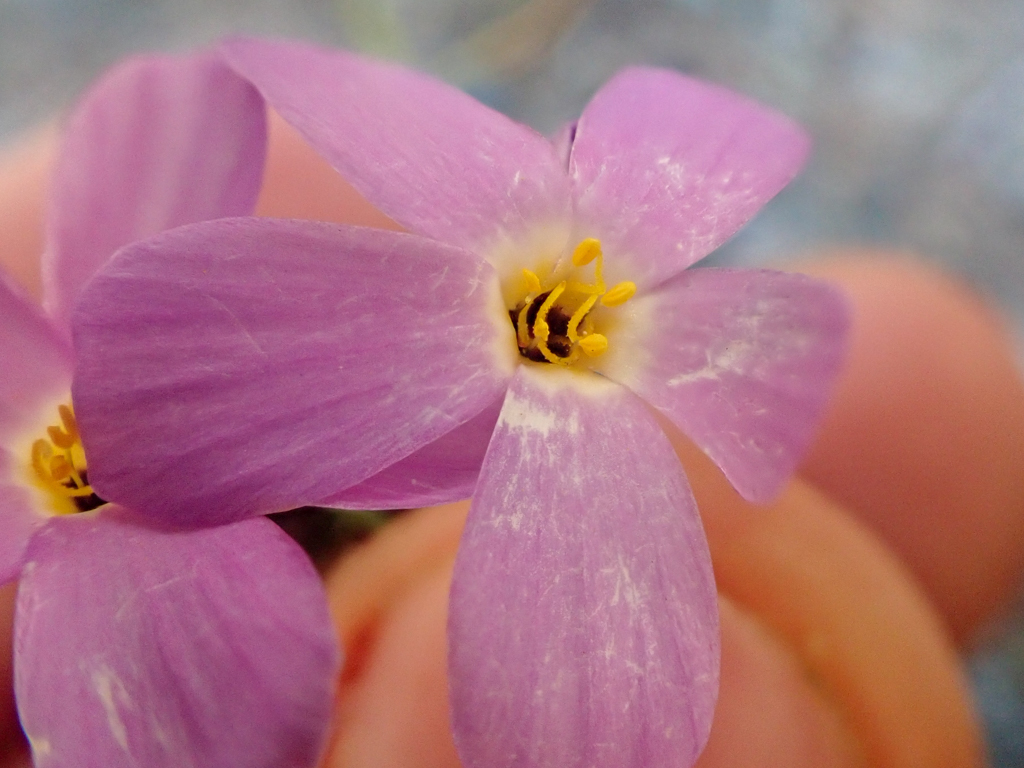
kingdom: Plantae
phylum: Tracheophyta
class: Magnoliopsida
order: Ericales
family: Polemoniaceae
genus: Leptosiphon
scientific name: Leptosiphon androsaceus
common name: False babystars
